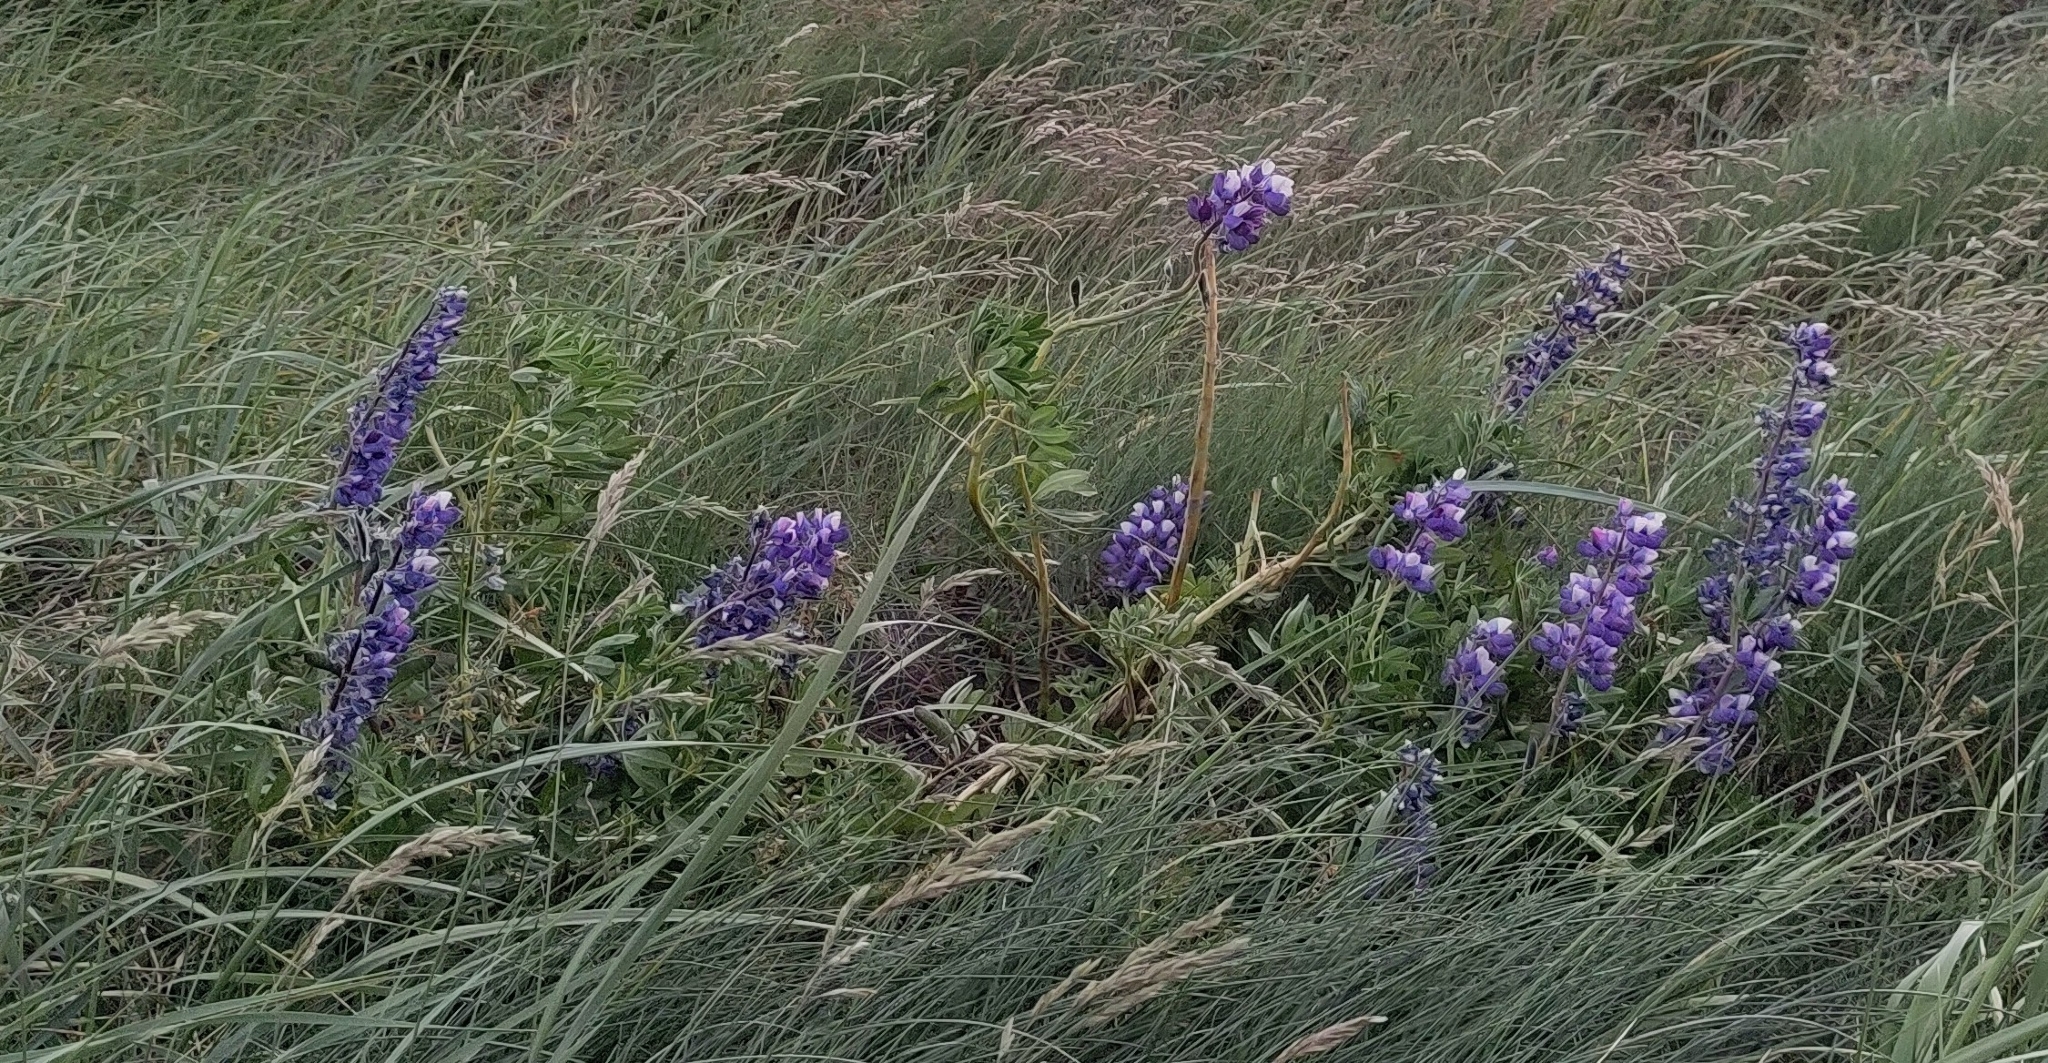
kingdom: Plantae
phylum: Tracheophyta
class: Magnoliopsida
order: Fabales
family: Fabaceae
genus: Lupinus
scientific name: Lupinus nootkatensis
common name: Nootka lupine
